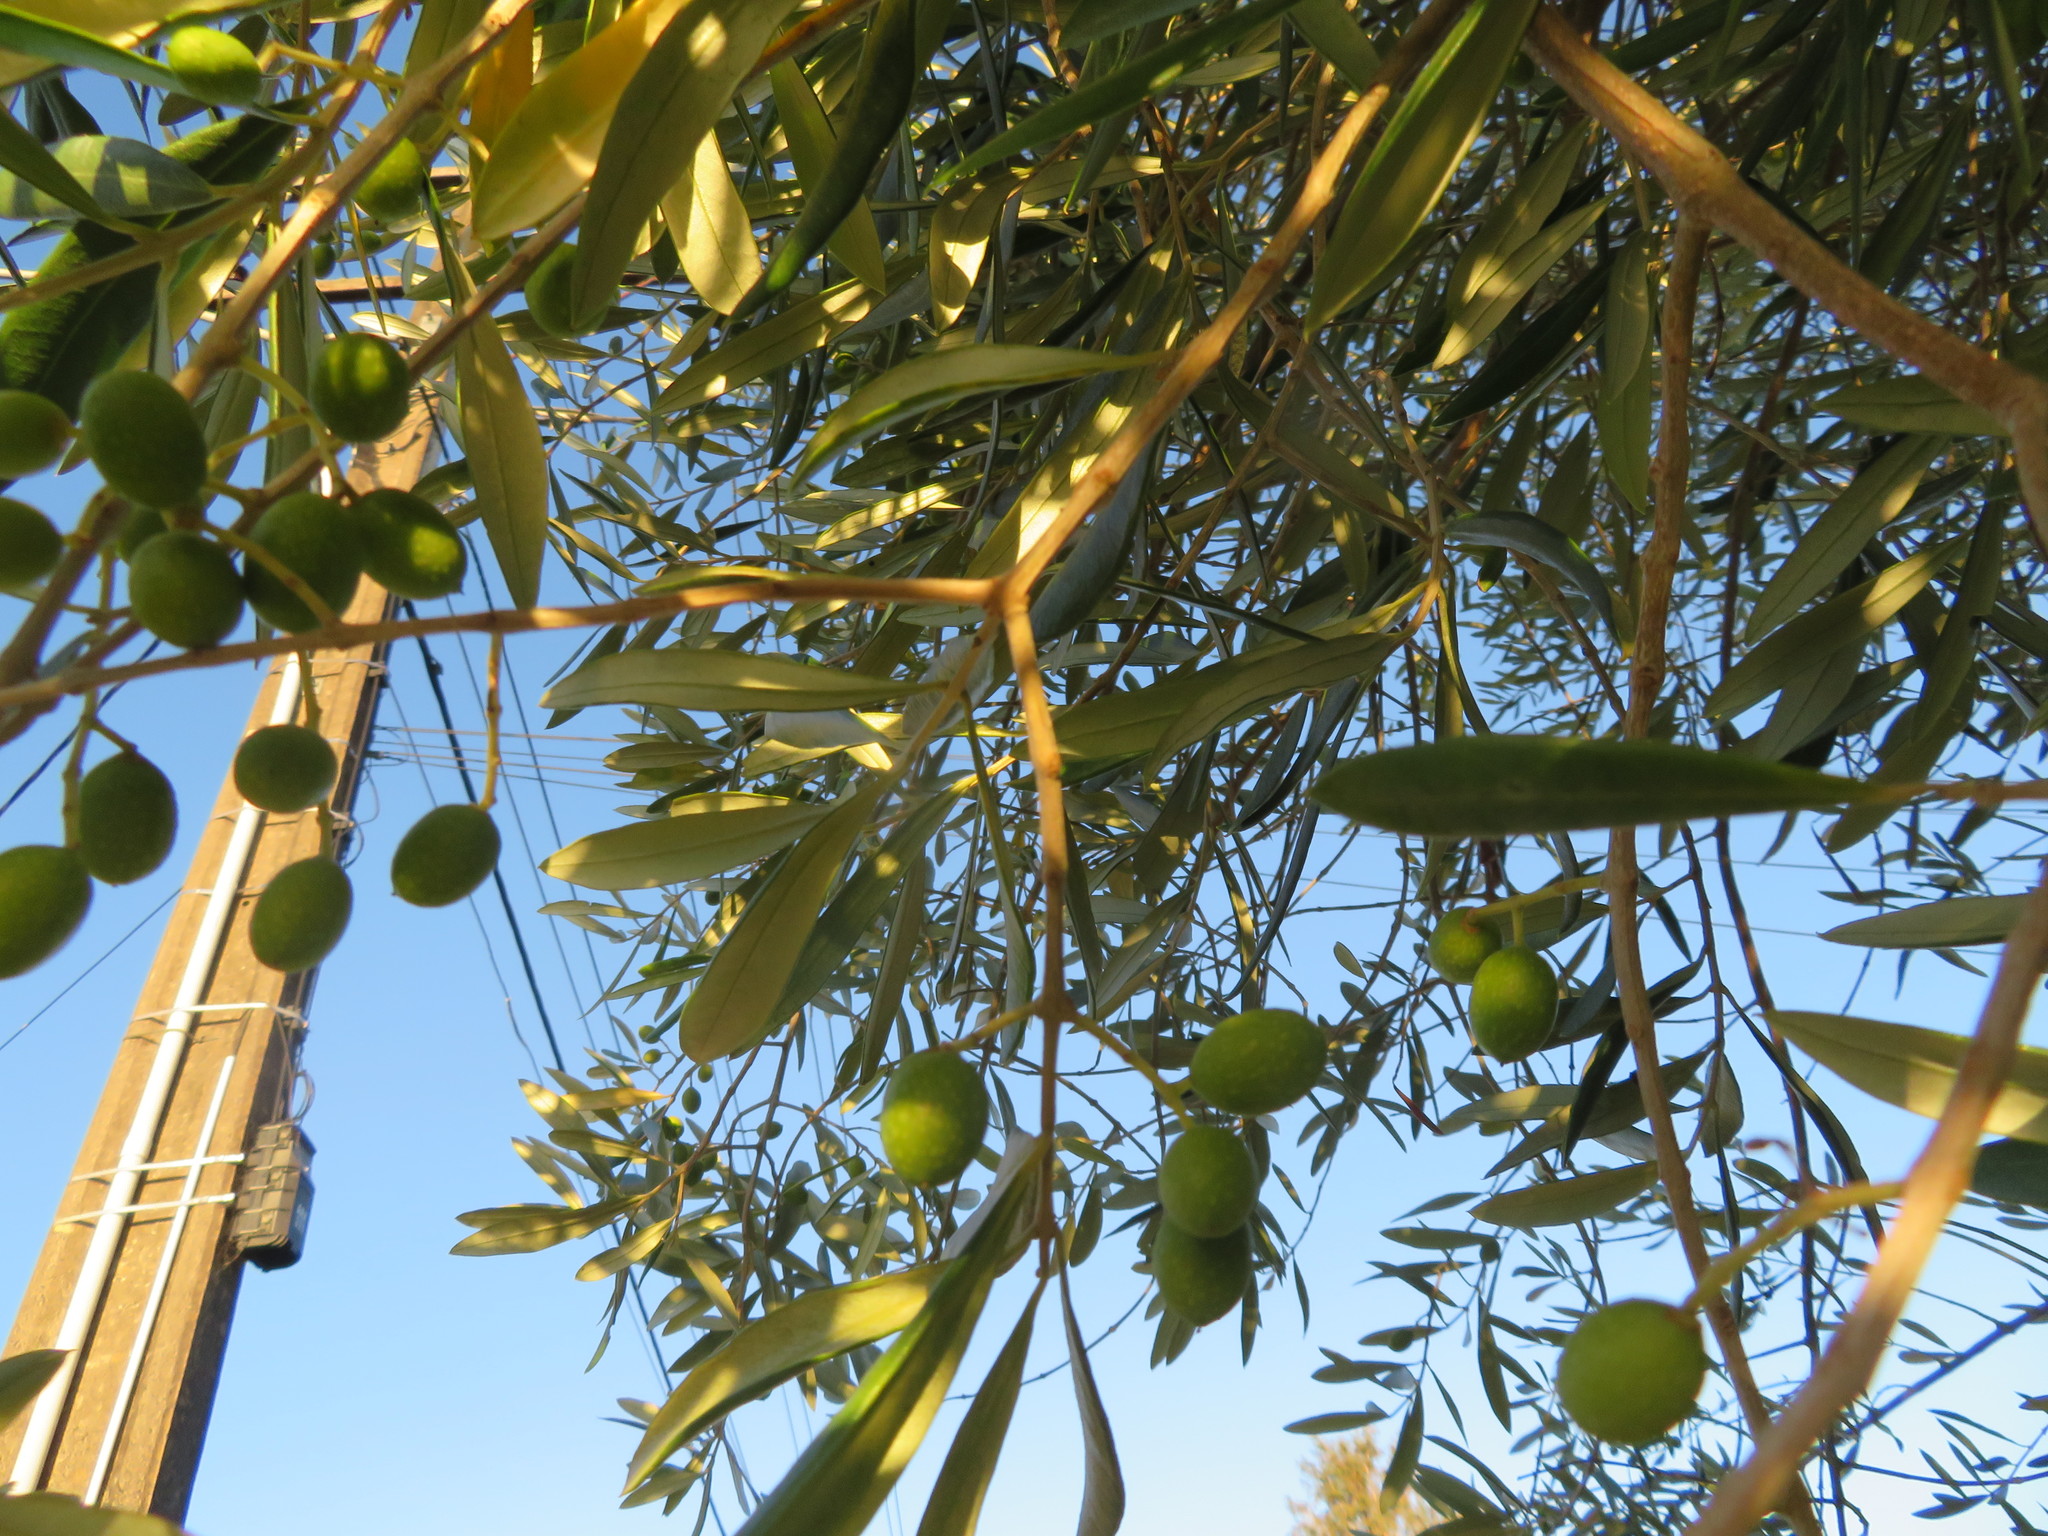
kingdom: Plantae
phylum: Tracheophyta
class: Magnoliopsida
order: Lamiales
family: Oleaceae
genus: Olea
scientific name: Olea europaea
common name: Olive
